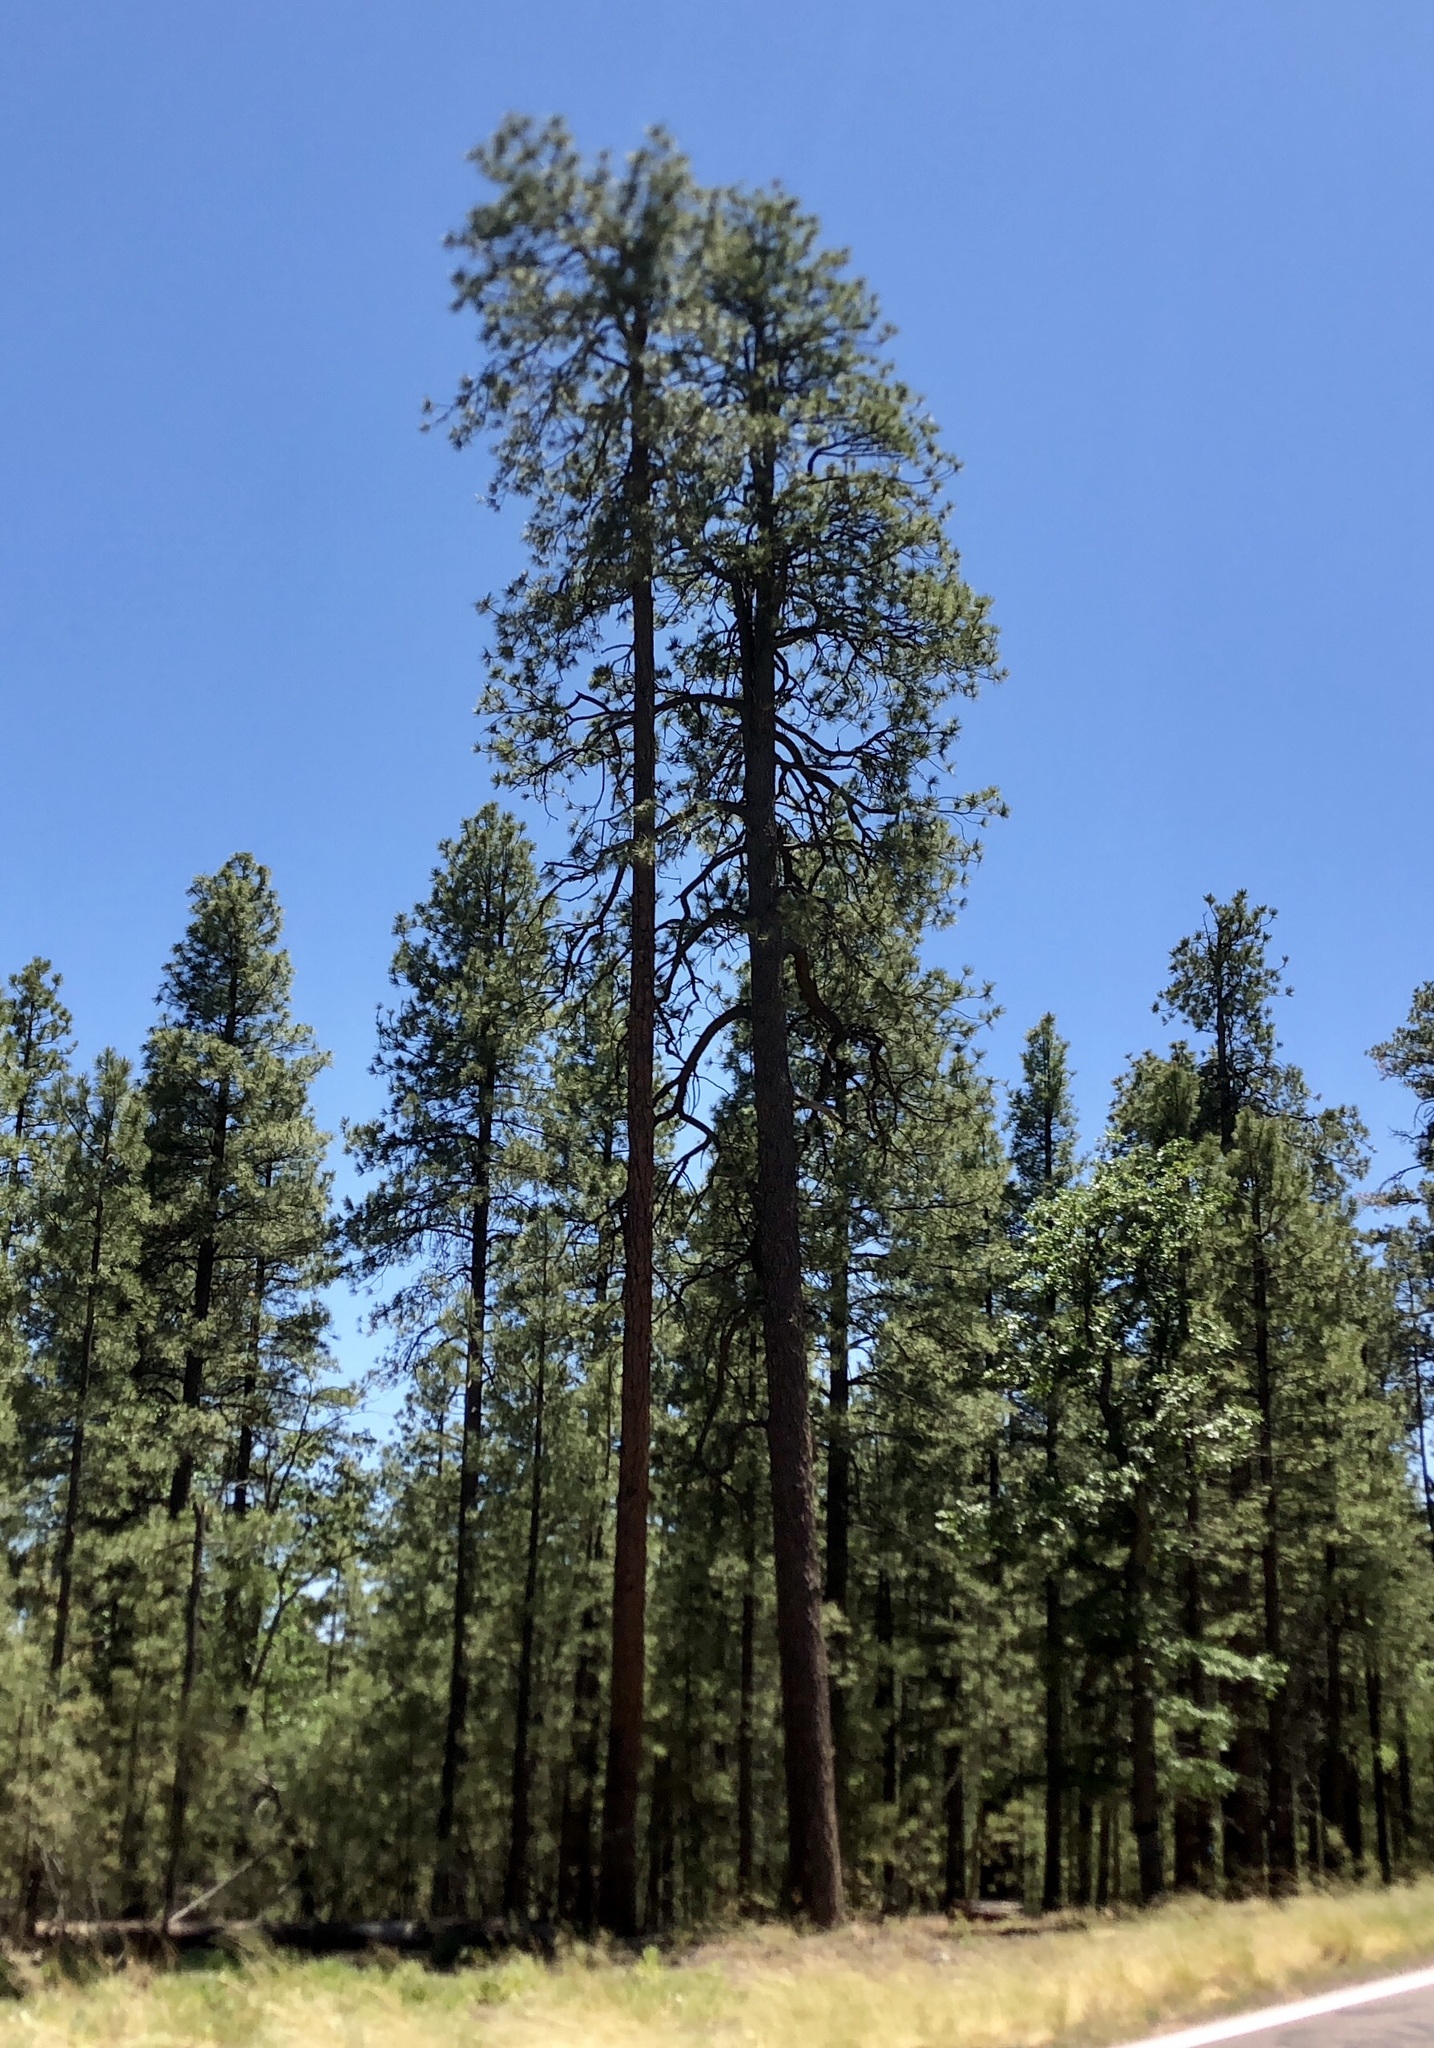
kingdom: Plantae
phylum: Tracheophyta
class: Pinopsida
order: Pinales
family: Pinaceae
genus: Pinus
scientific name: Pinus ponderosa
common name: Western yellow-pine
